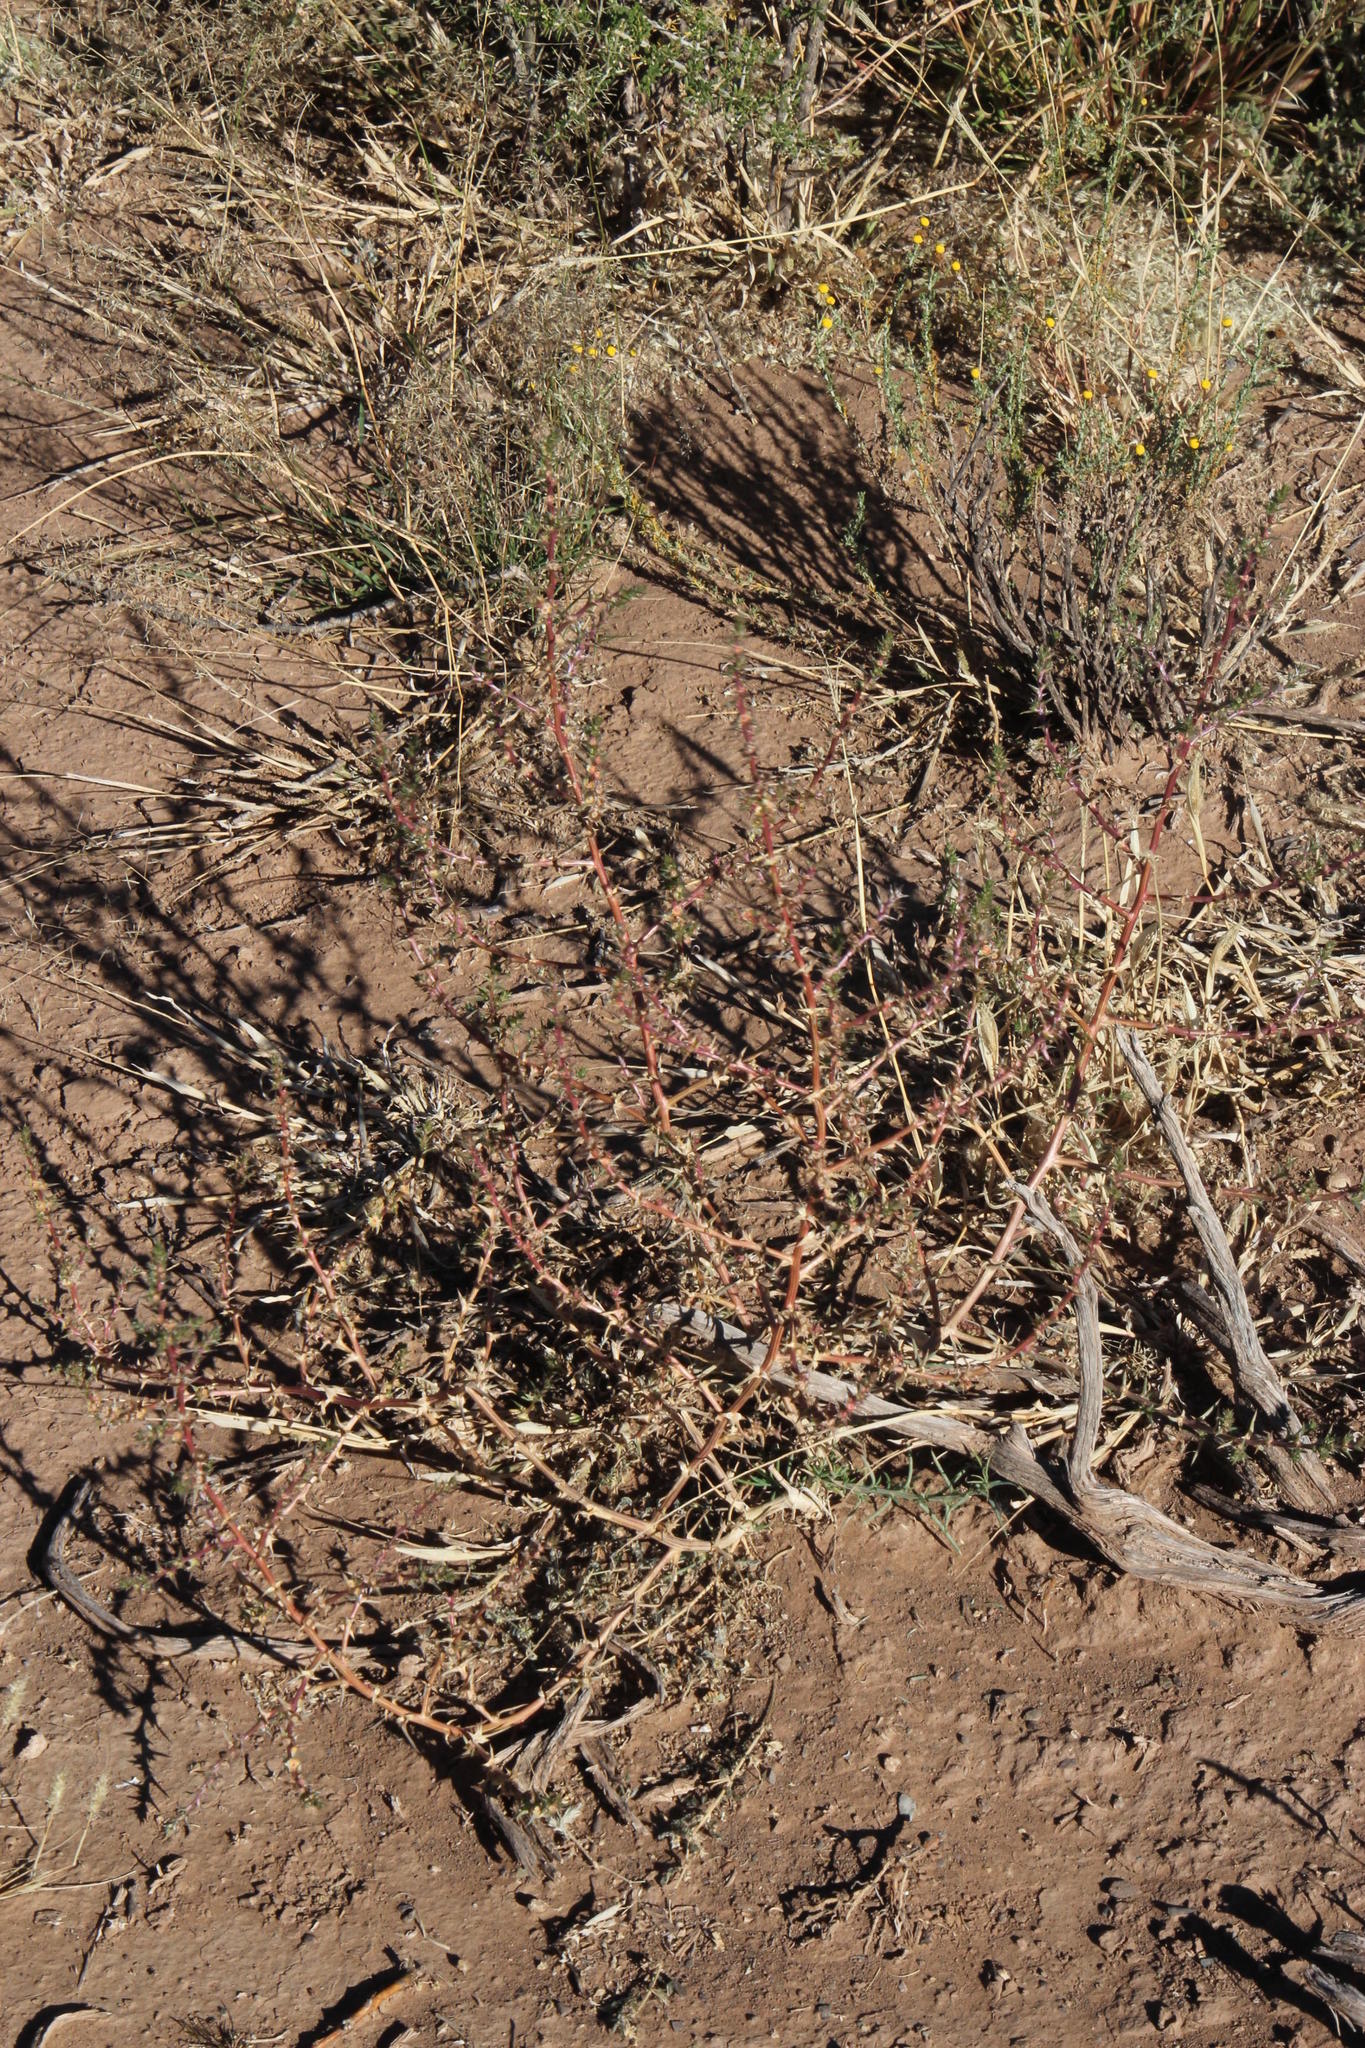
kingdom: Plantae
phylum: Tracheophyta
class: Magnoliopsida
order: Caryophyllales
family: Amaranthaceae
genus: Salsola
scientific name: Salsola kali
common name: Saltwort
